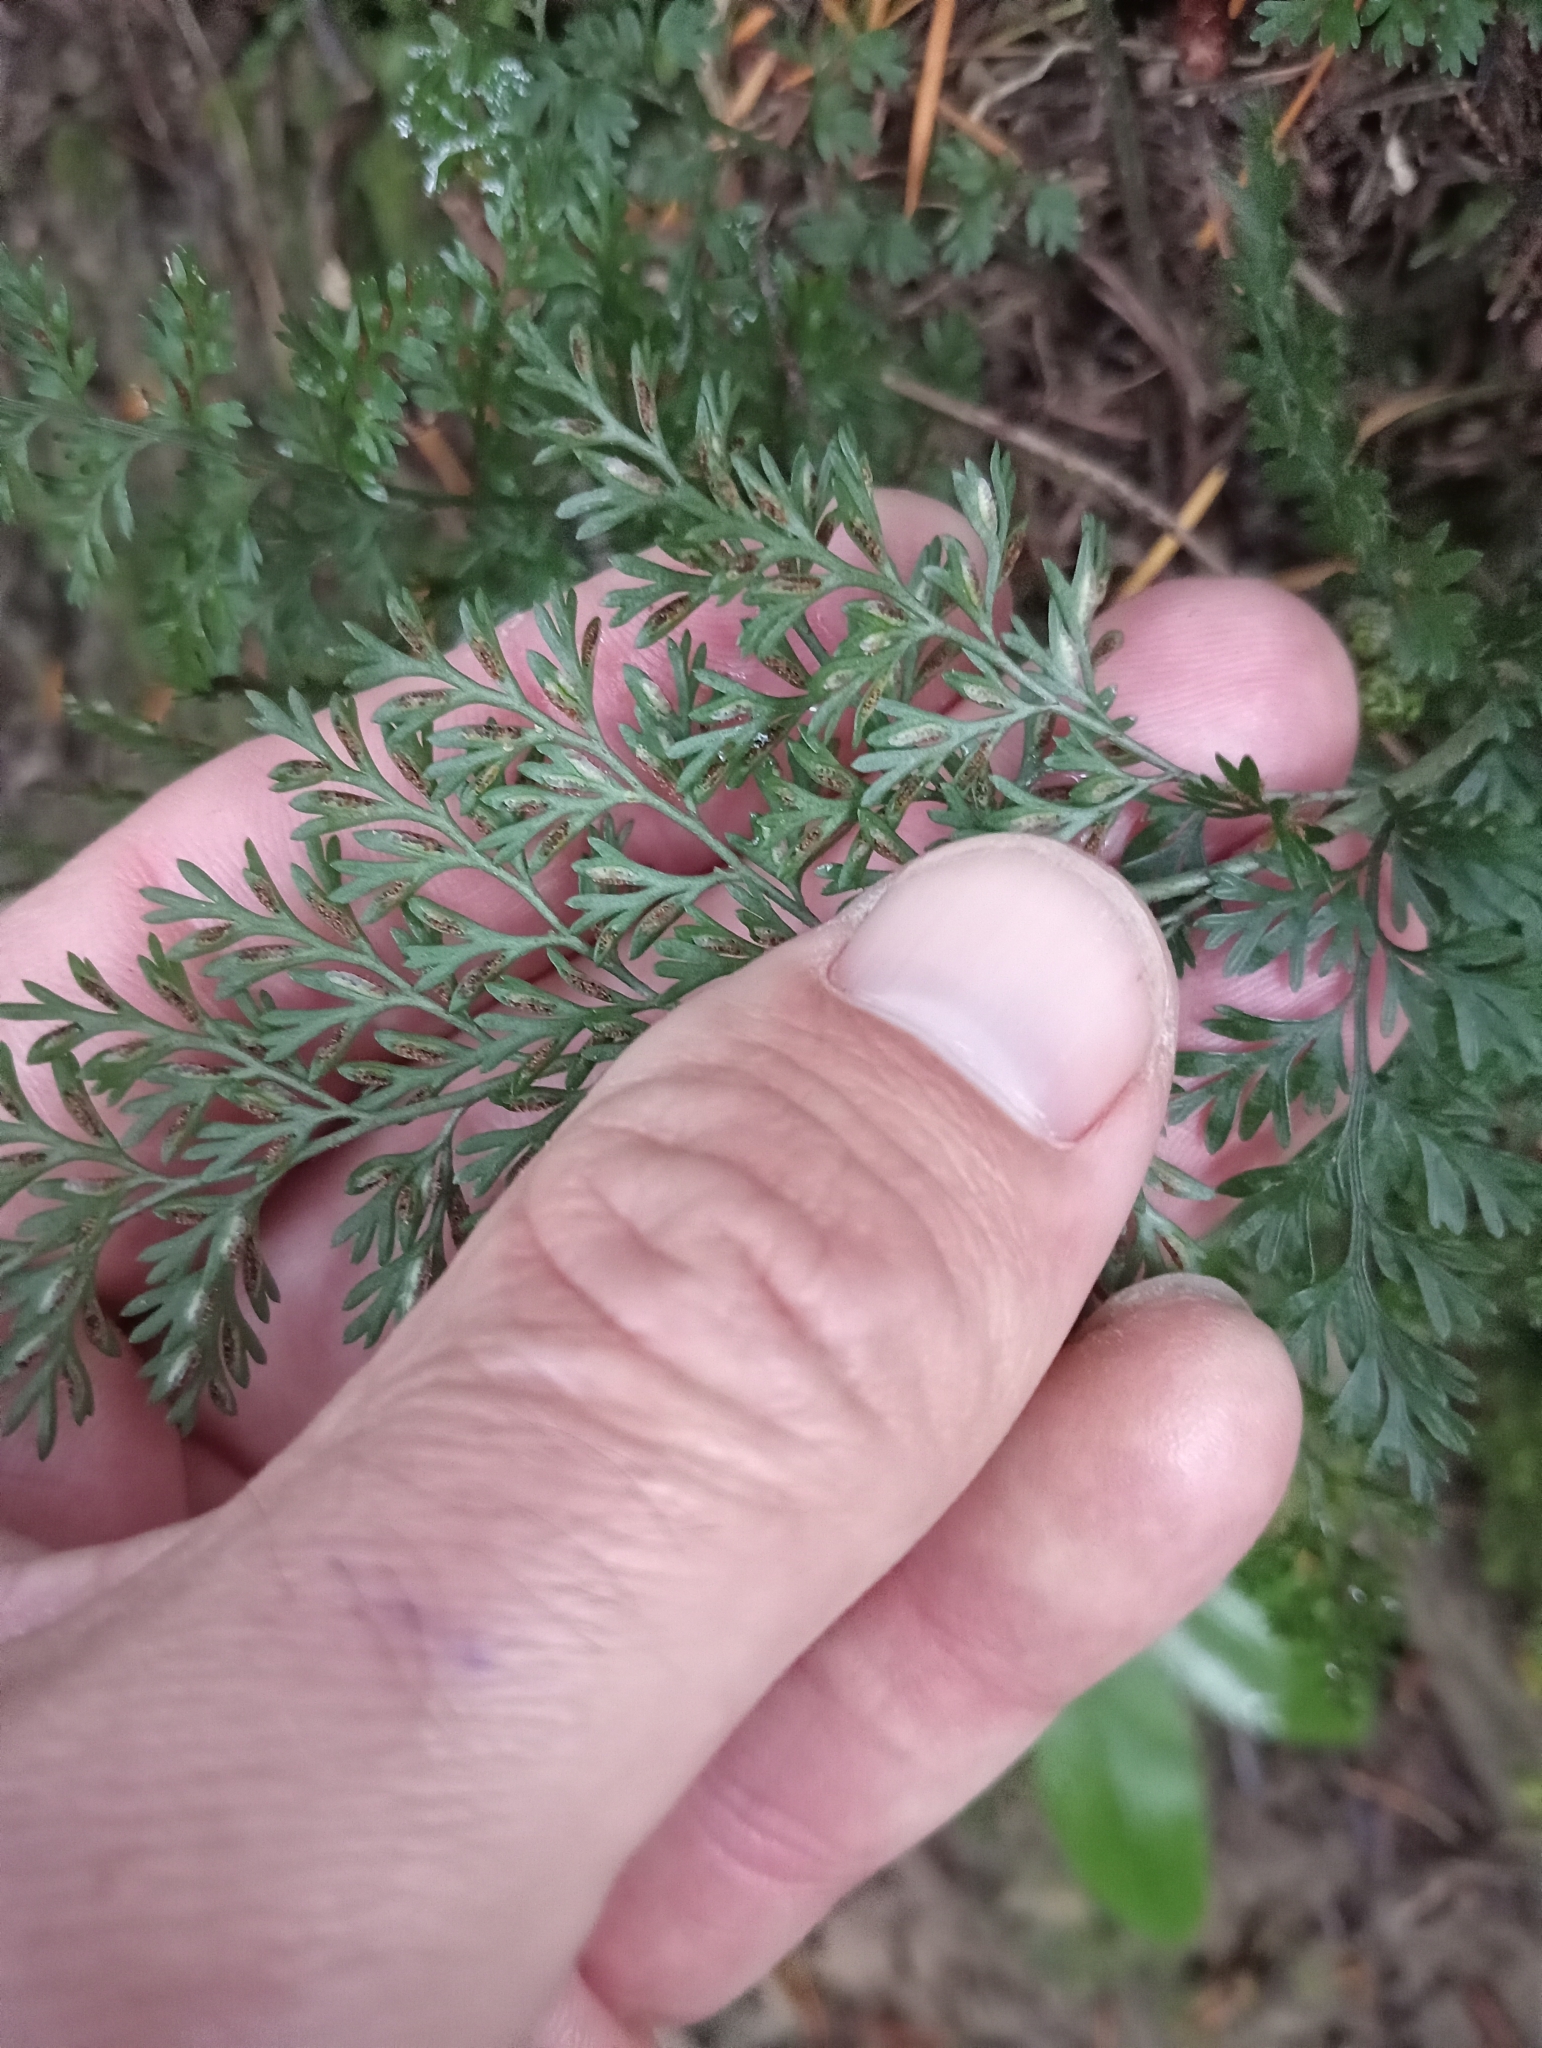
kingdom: Plantae
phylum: Tracheophyta
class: Polypodiopsida
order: Polypodiales
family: Aspleniaceae
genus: Asplenium
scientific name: Asplenium richardii
